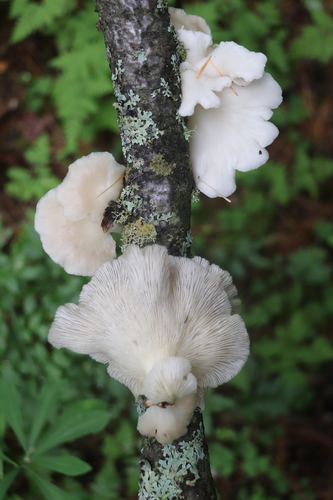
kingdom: Fungi
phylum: Basidiomycota
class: Agaricomycetes
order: Agaricales
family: Pleurotaceae
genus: Pleurotus
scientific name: Pleurotus pulmonarius
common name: Pale oyster
